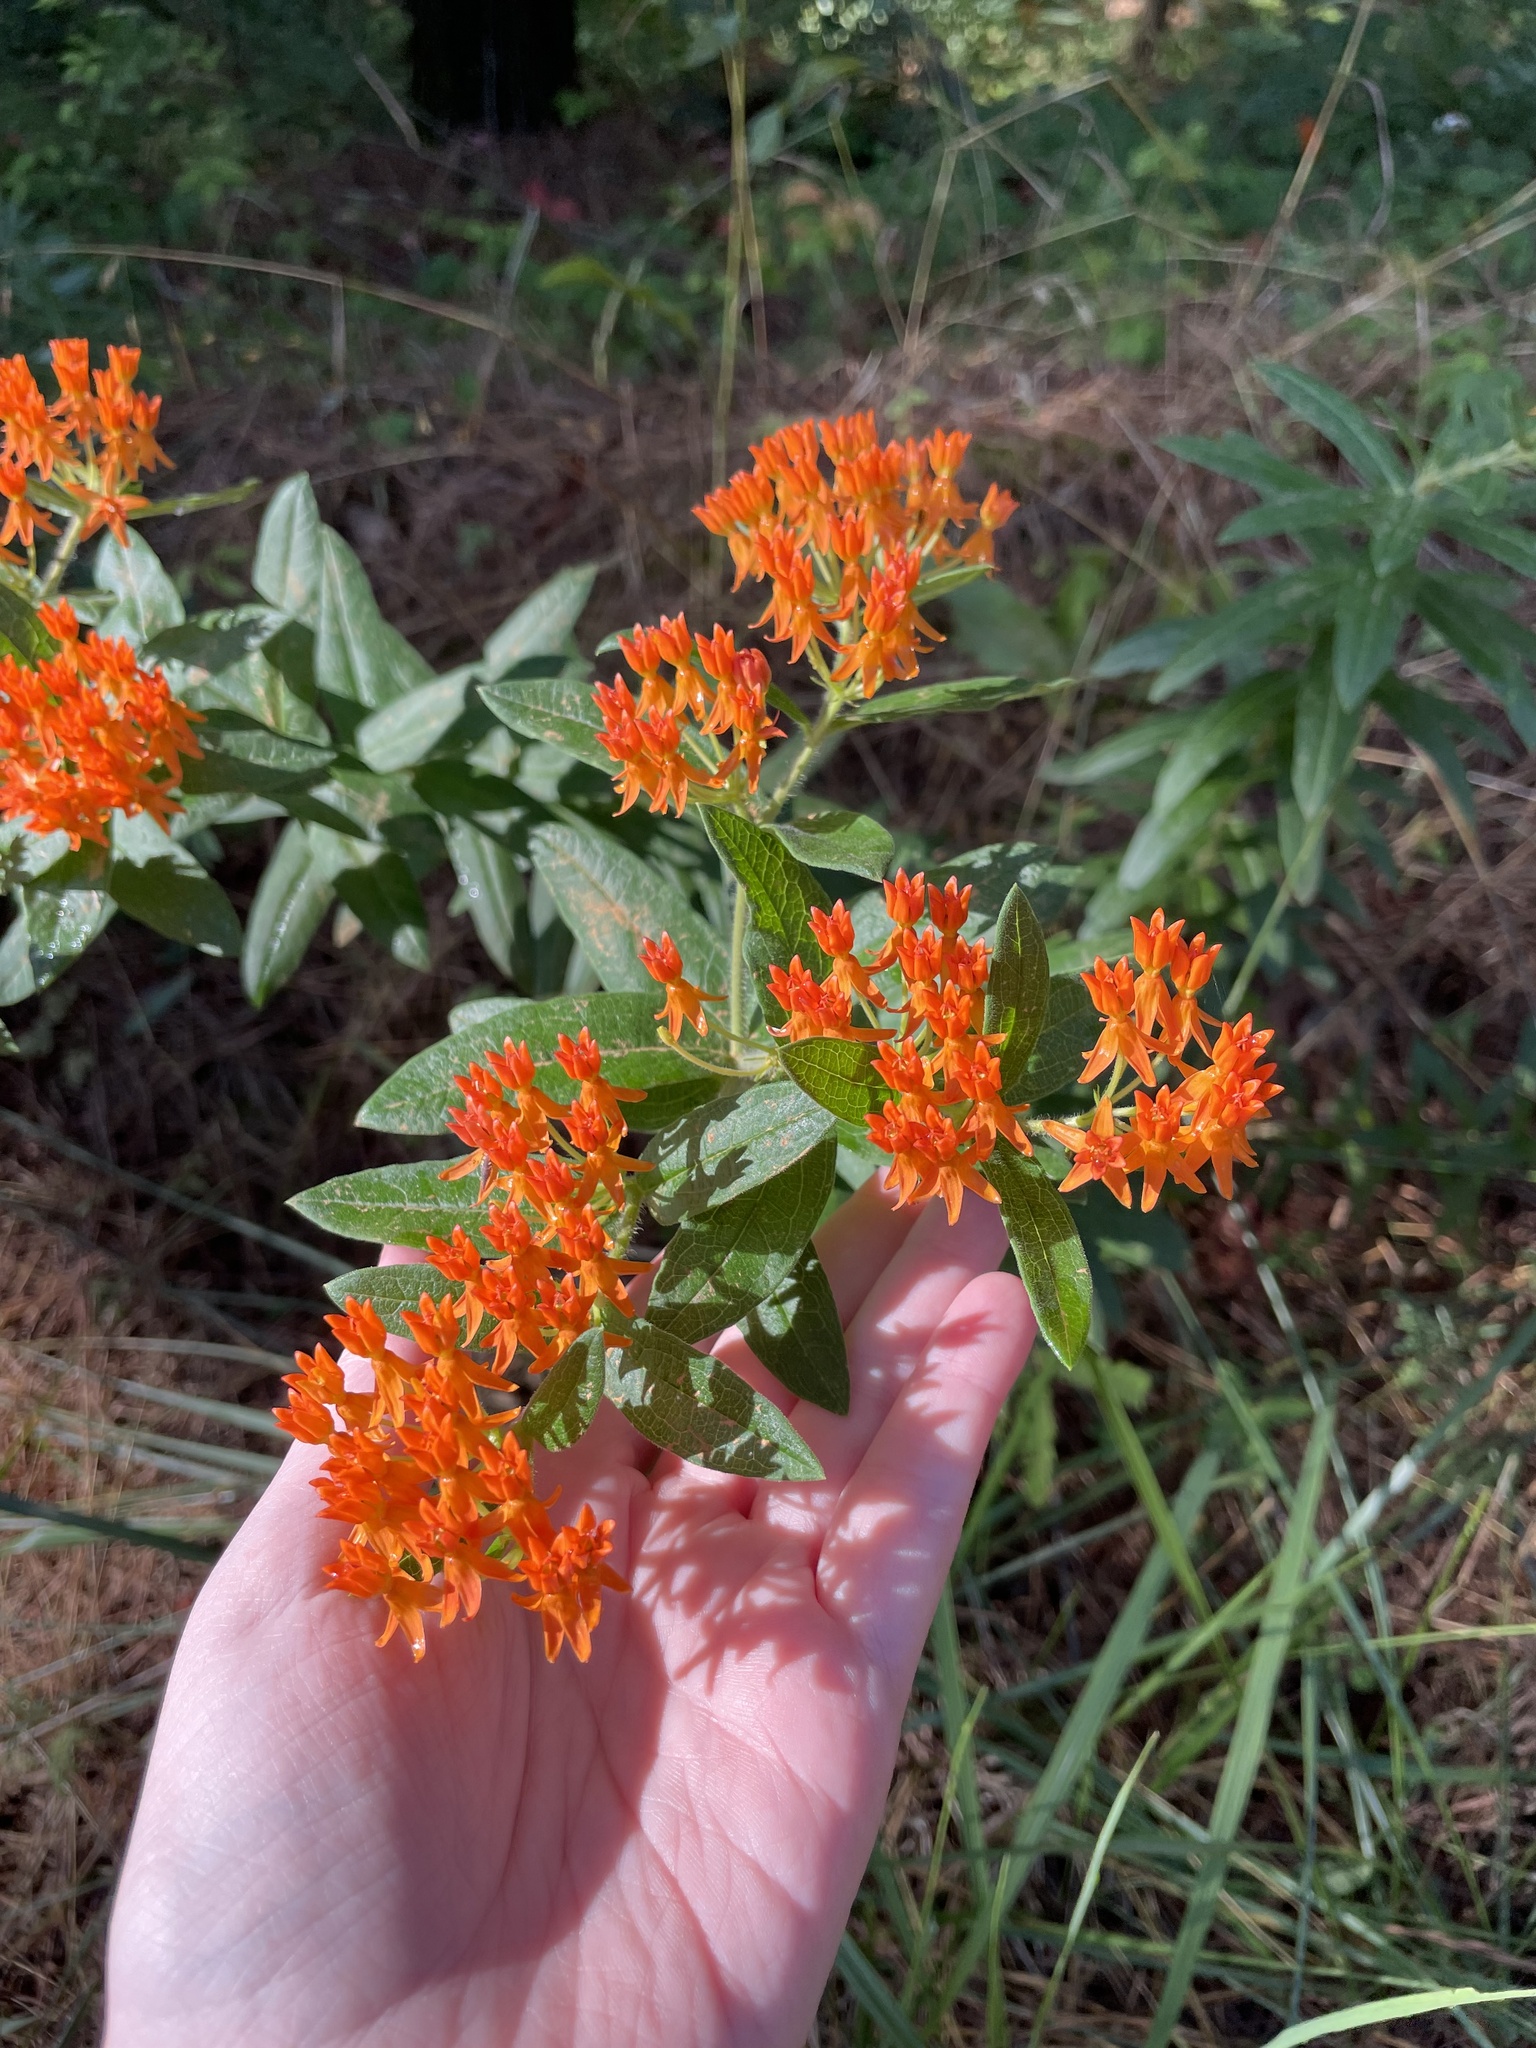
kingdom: Plantae
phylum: Tracheophyta
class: Magnoliopsida
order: Gentianales
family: Apocynaceae
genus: Asclepias
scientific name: Asclepias tuberosa
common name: Butterfly milkweed
